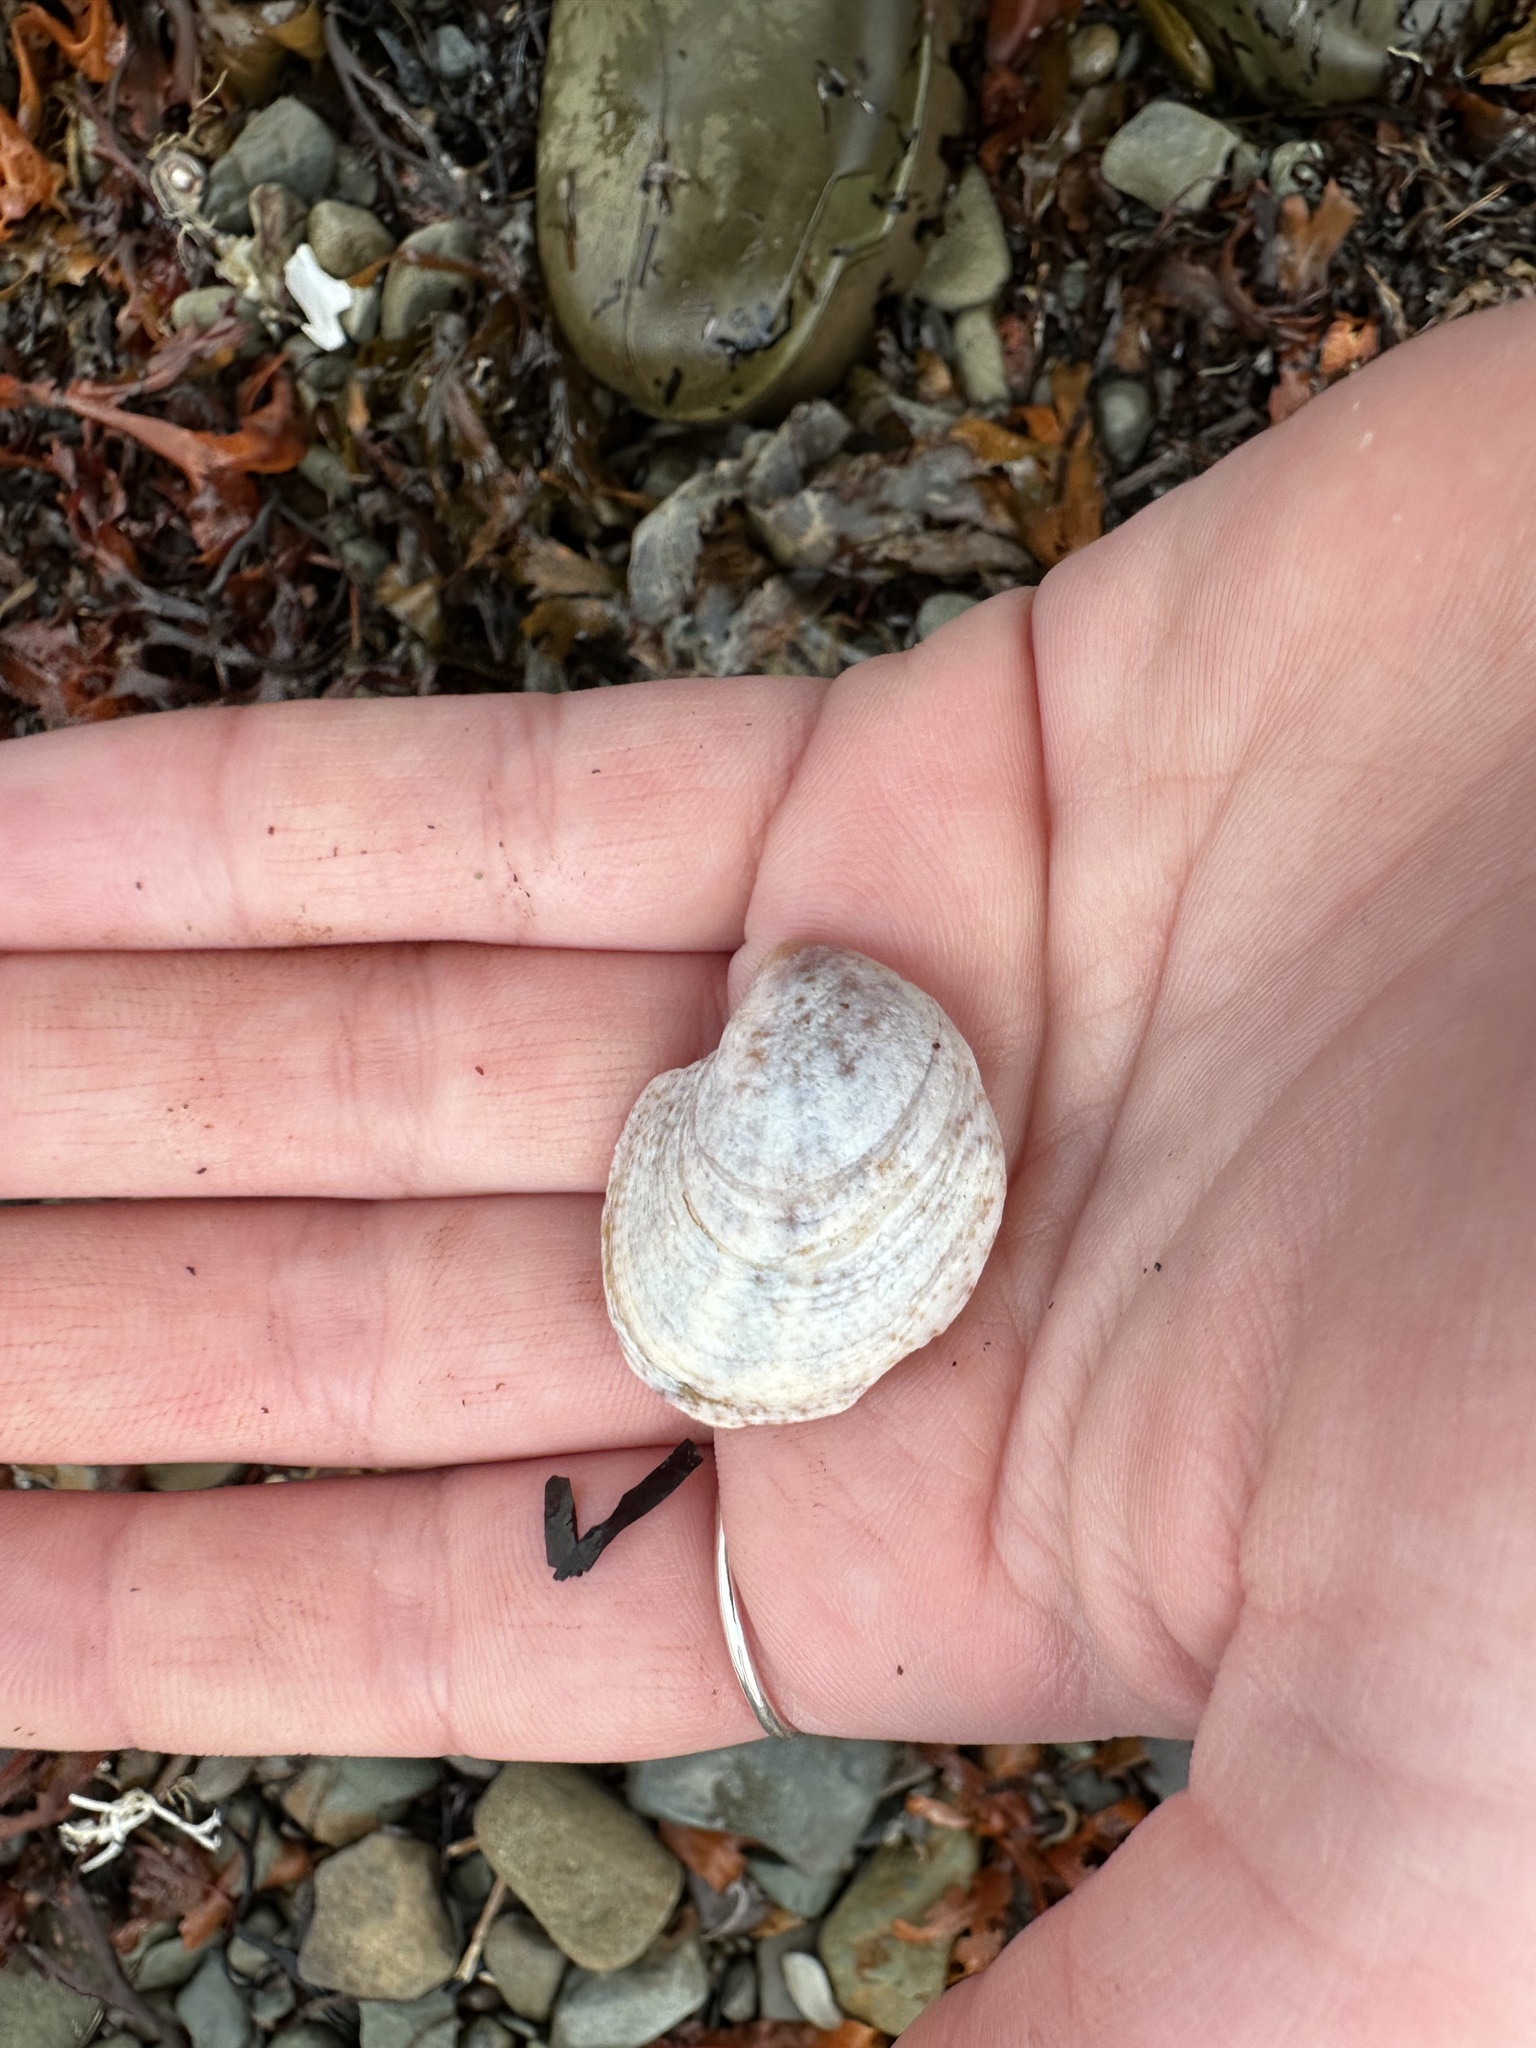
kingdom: Animalia
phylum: Mollusca
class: Gastropoda
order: Littorinimorpha
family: Calyptraeidae
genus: Crepidula
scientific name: Crepidula fornicata
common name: Slipper limpet
